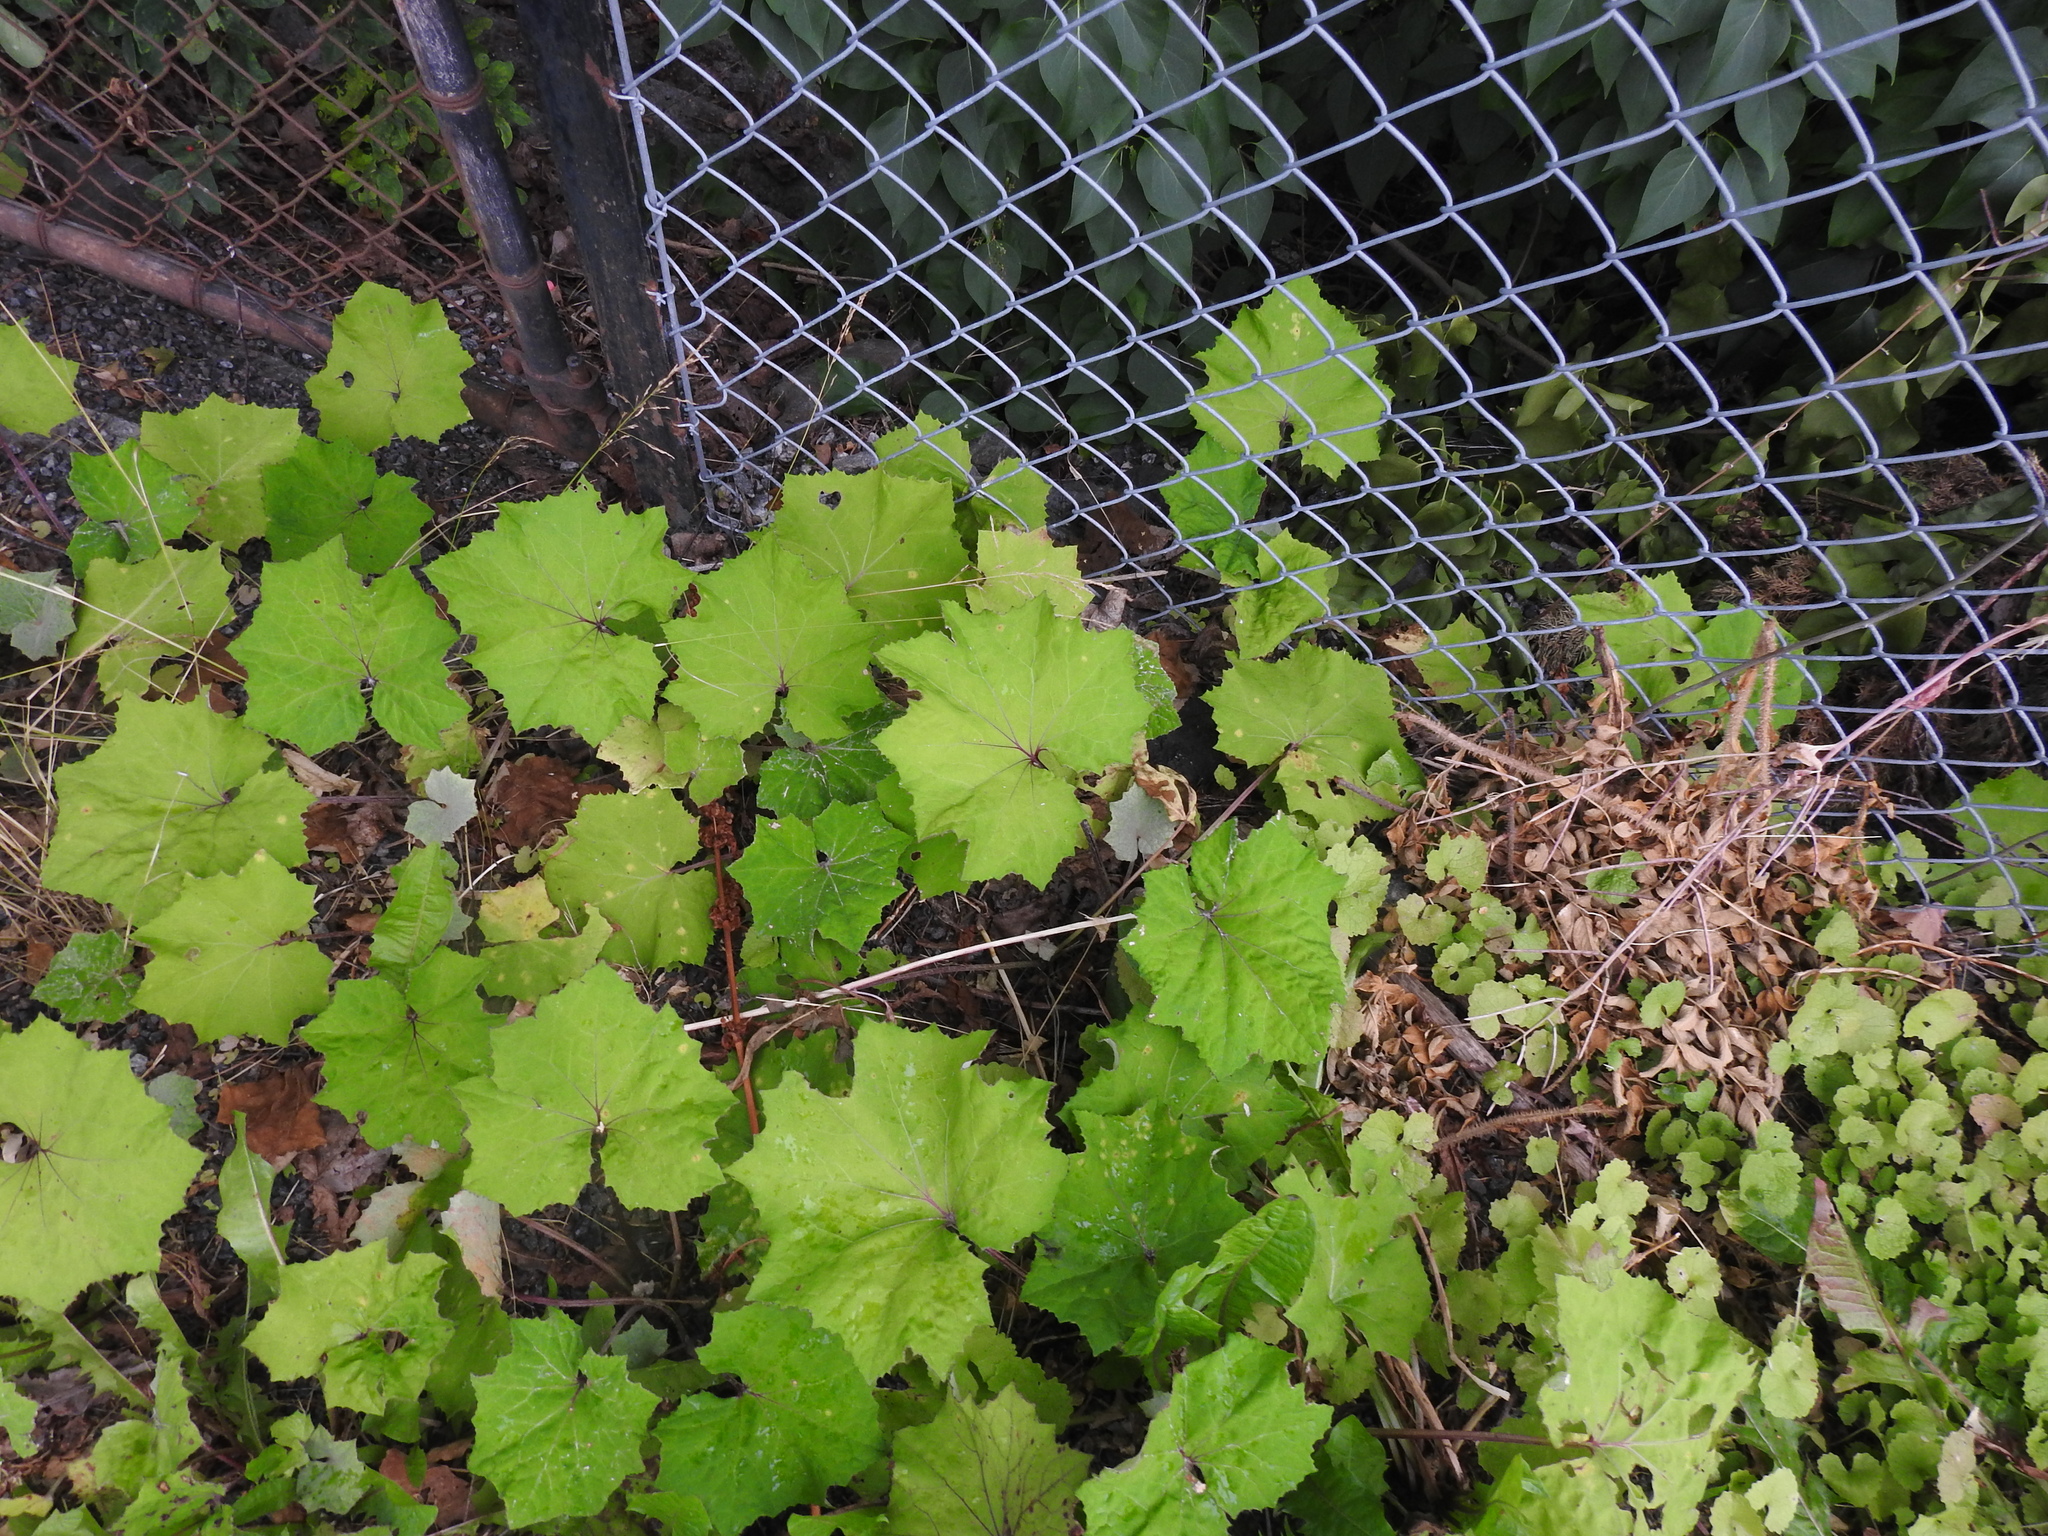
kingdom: Plantae
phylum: Tracheophyta
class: Magnoliopsida
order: Asterales
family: Asteraceae
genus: Tussilago
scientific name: Tussilago farfara
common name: Coltsfoot
